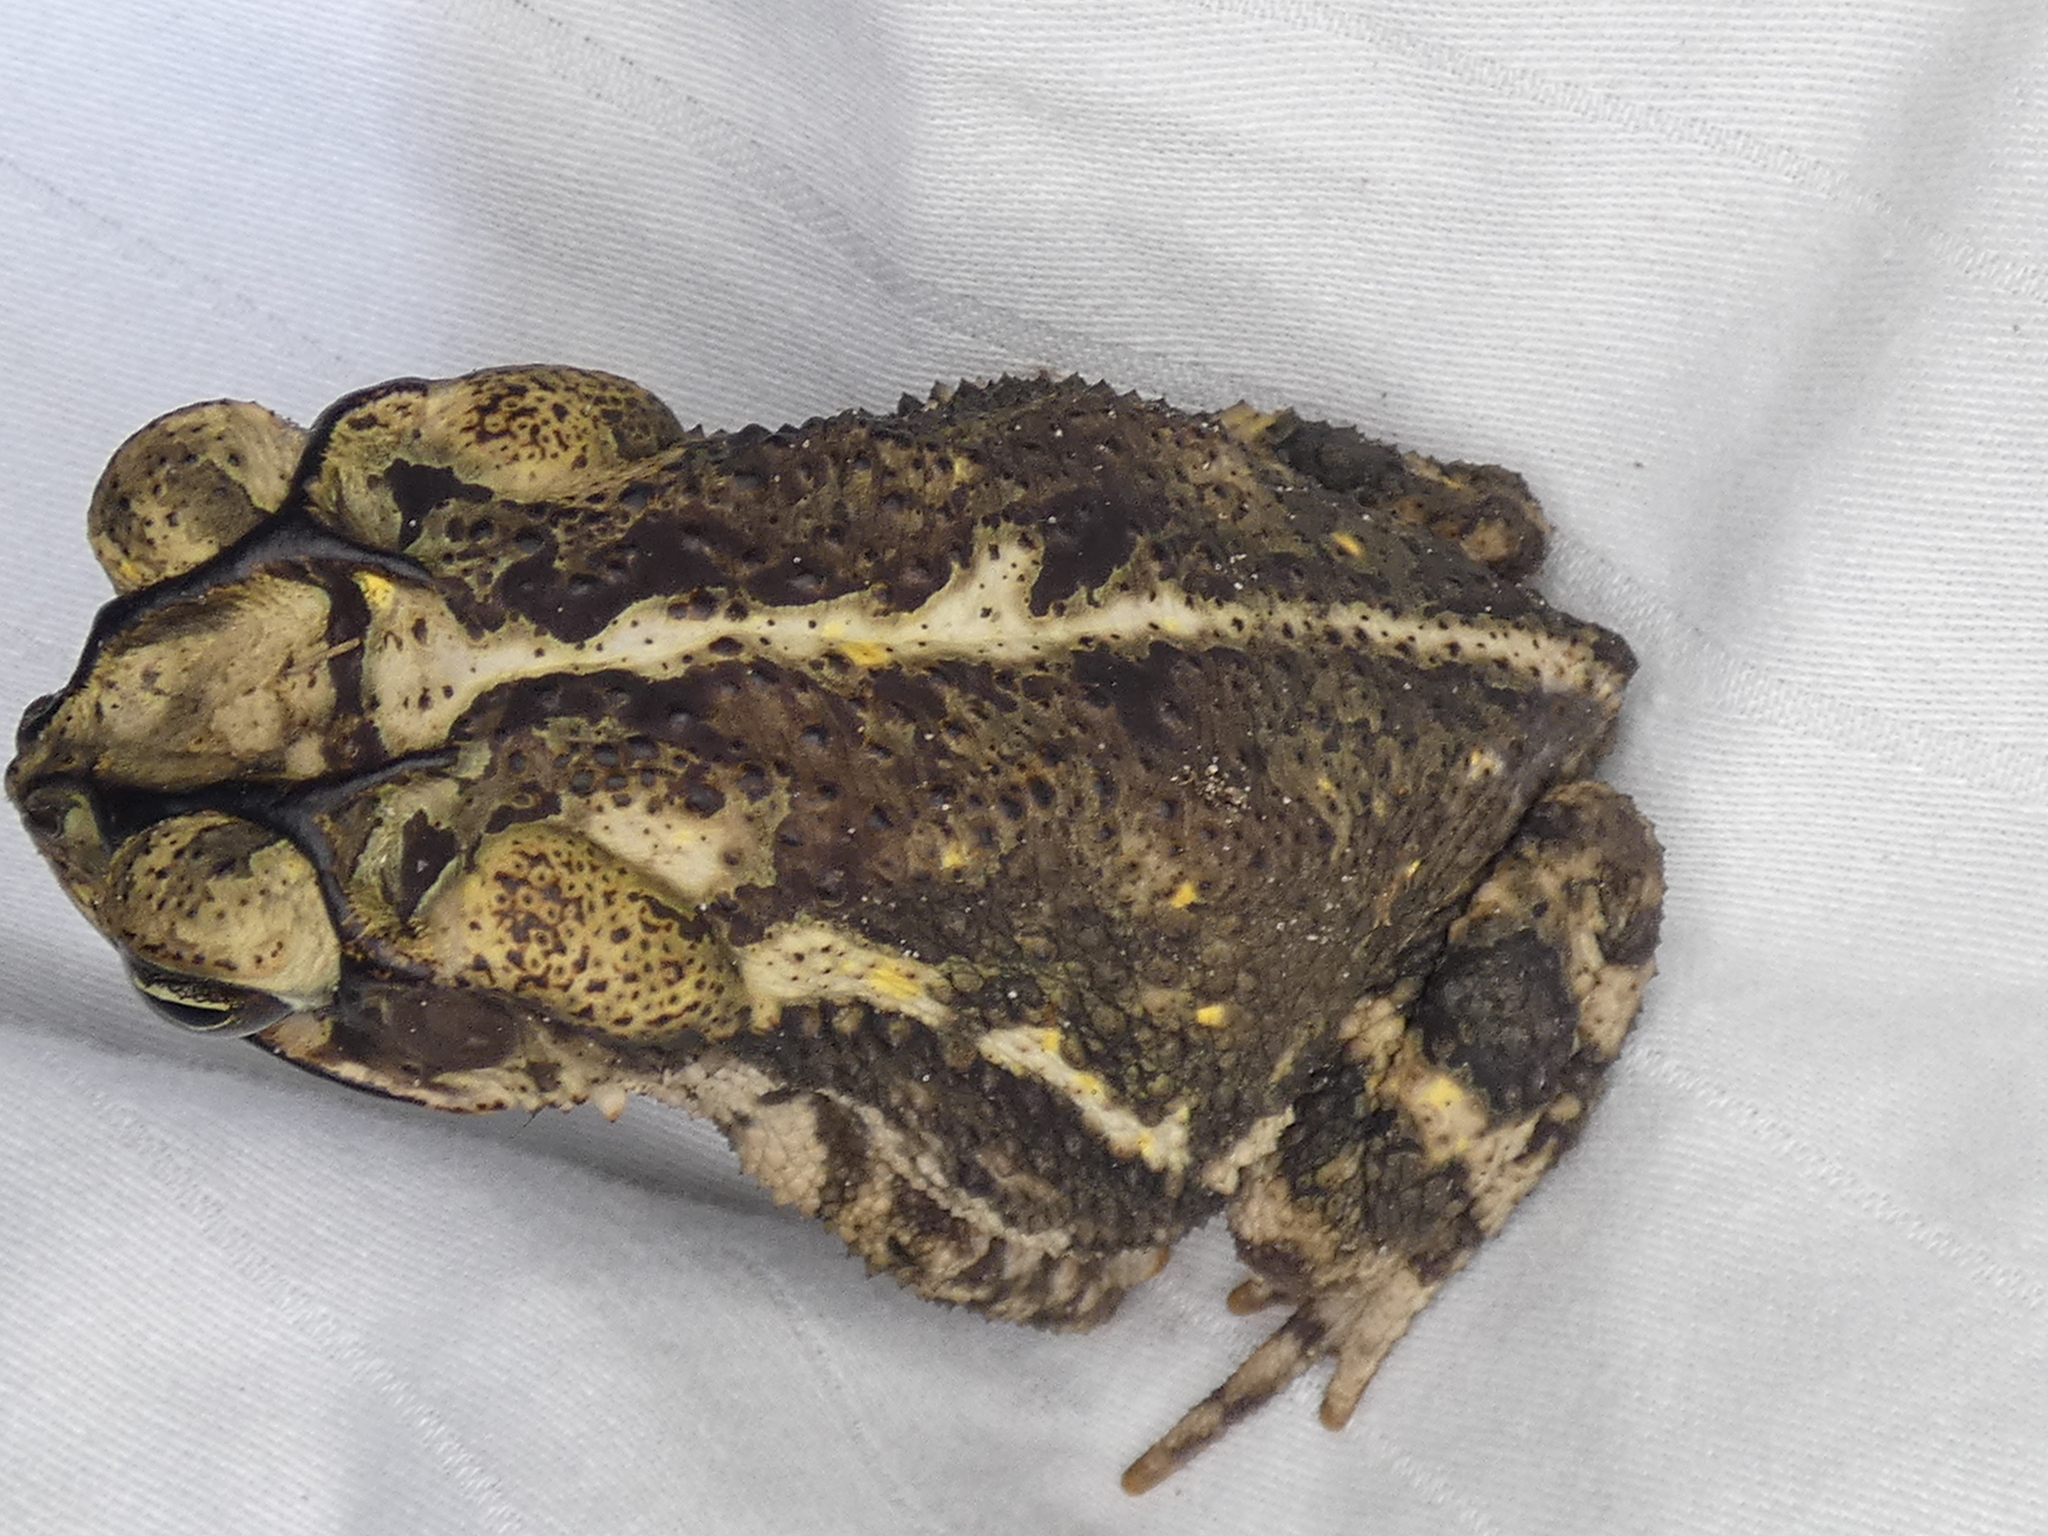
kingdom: Animalia
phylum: Chordata
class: Amphibia
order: Anura
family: Bufonidae
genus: Incilius
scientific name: Incilius nebulifer
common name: Gulf coast toad
